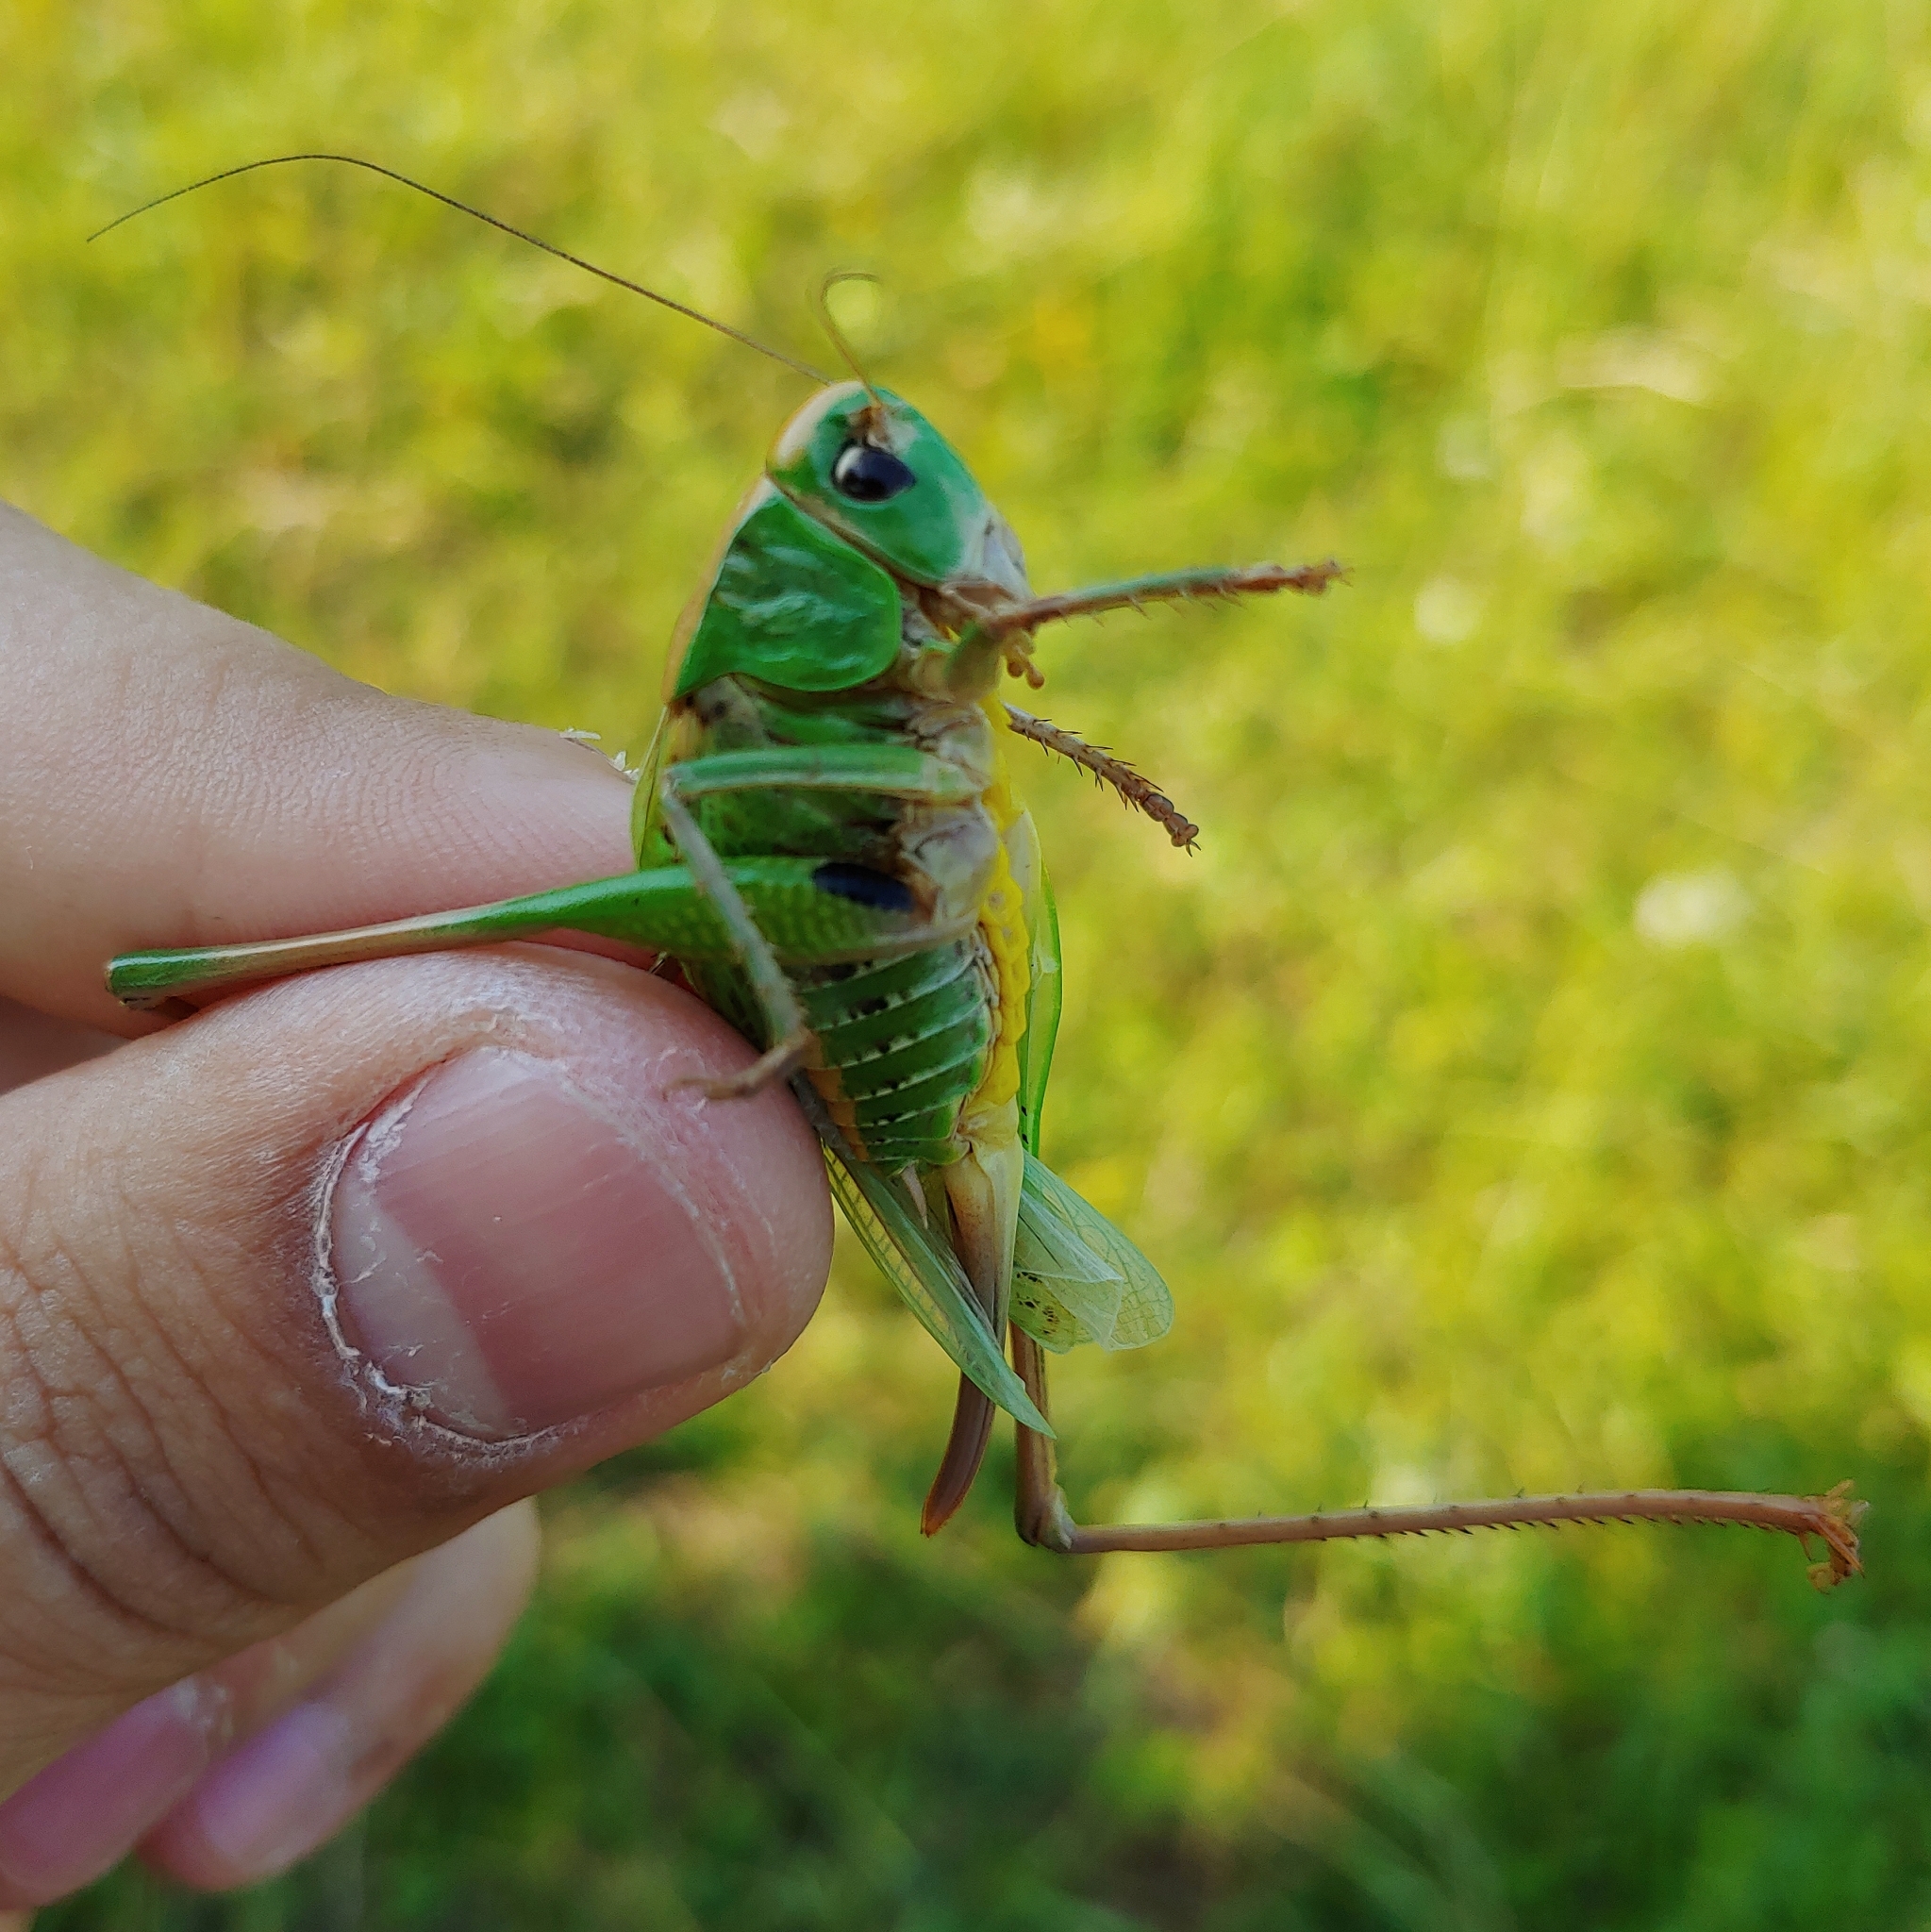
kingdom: Animalia
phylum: Arthropoda
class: Insecta
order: Orthoptera
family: Tettigoniidae
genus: Decticus
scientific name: Decticus verrucivorus
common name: Wart-biter
